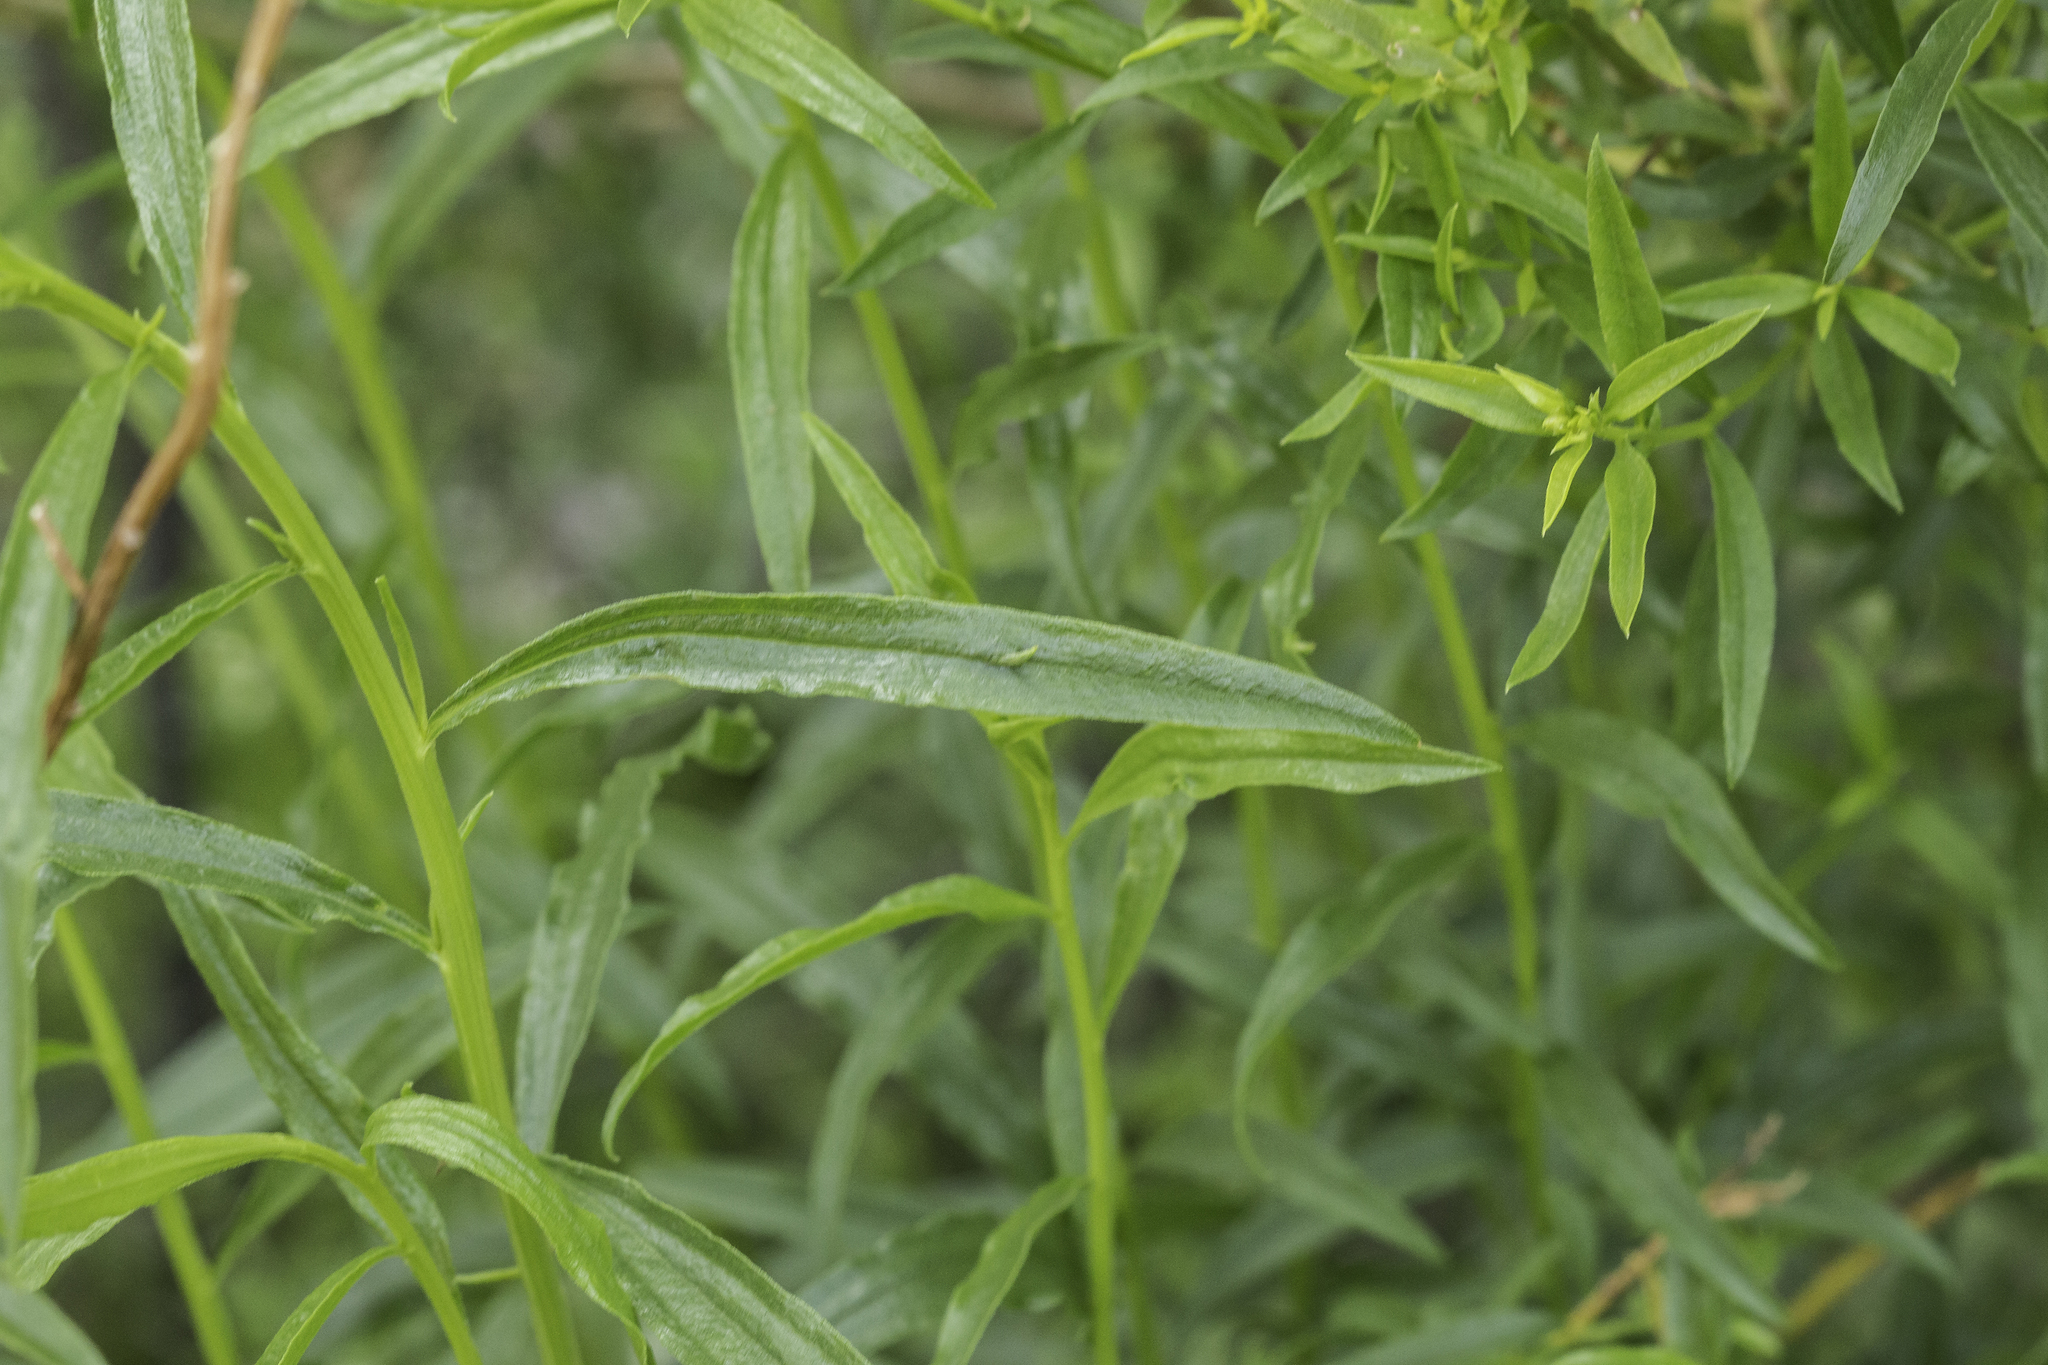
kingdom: Plantae
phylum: Tracheophyta
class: Magnoliopsida
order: Asterales
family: Asteraceae
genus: Gymnosperma
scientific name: Gymnosperma glutinosum
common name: Gumhead
